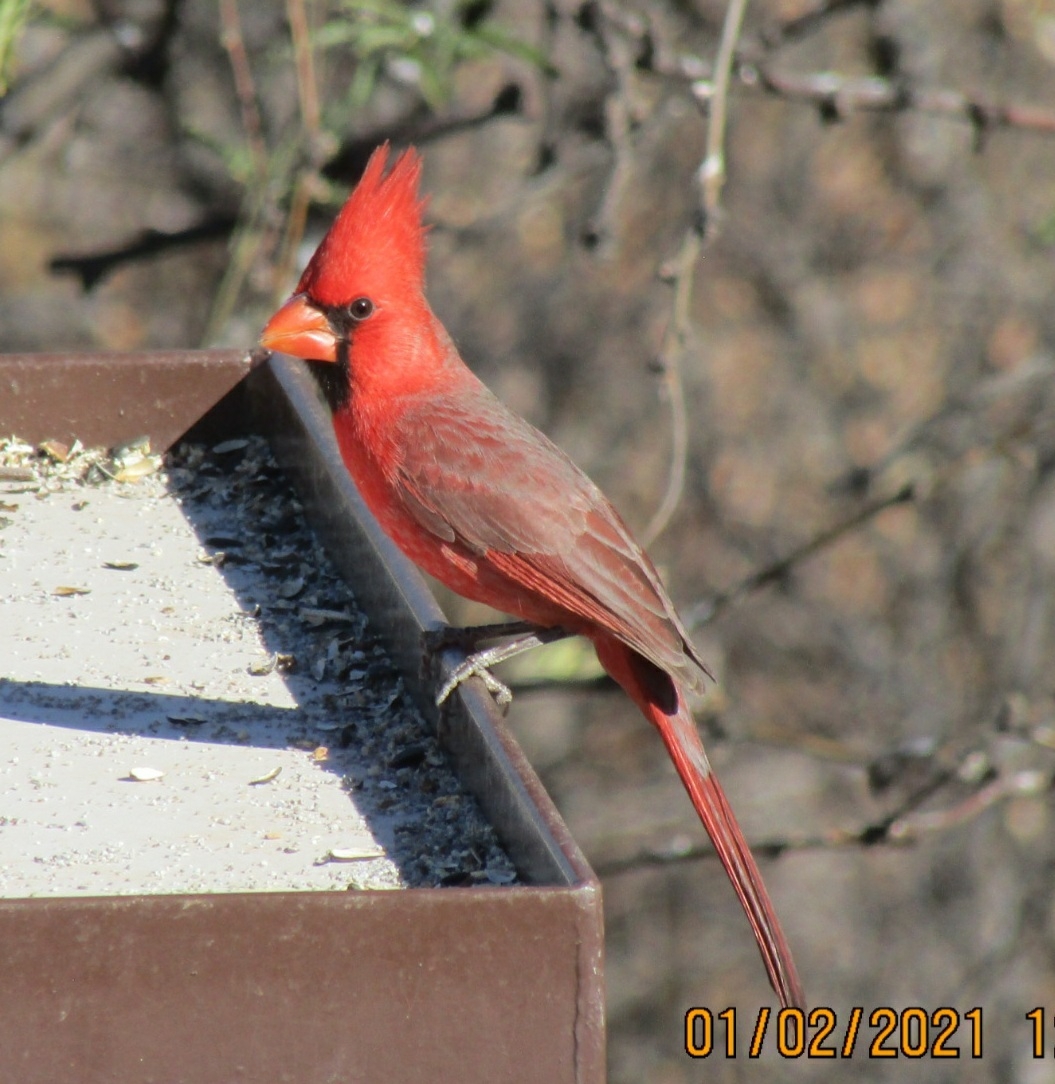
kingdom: Animalia
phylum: Chordata
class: Aves
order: Passeriformes
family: Cardinalidae
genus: Cardinalis
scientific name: Cardinalis cardinalis
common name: Northern cardinal
